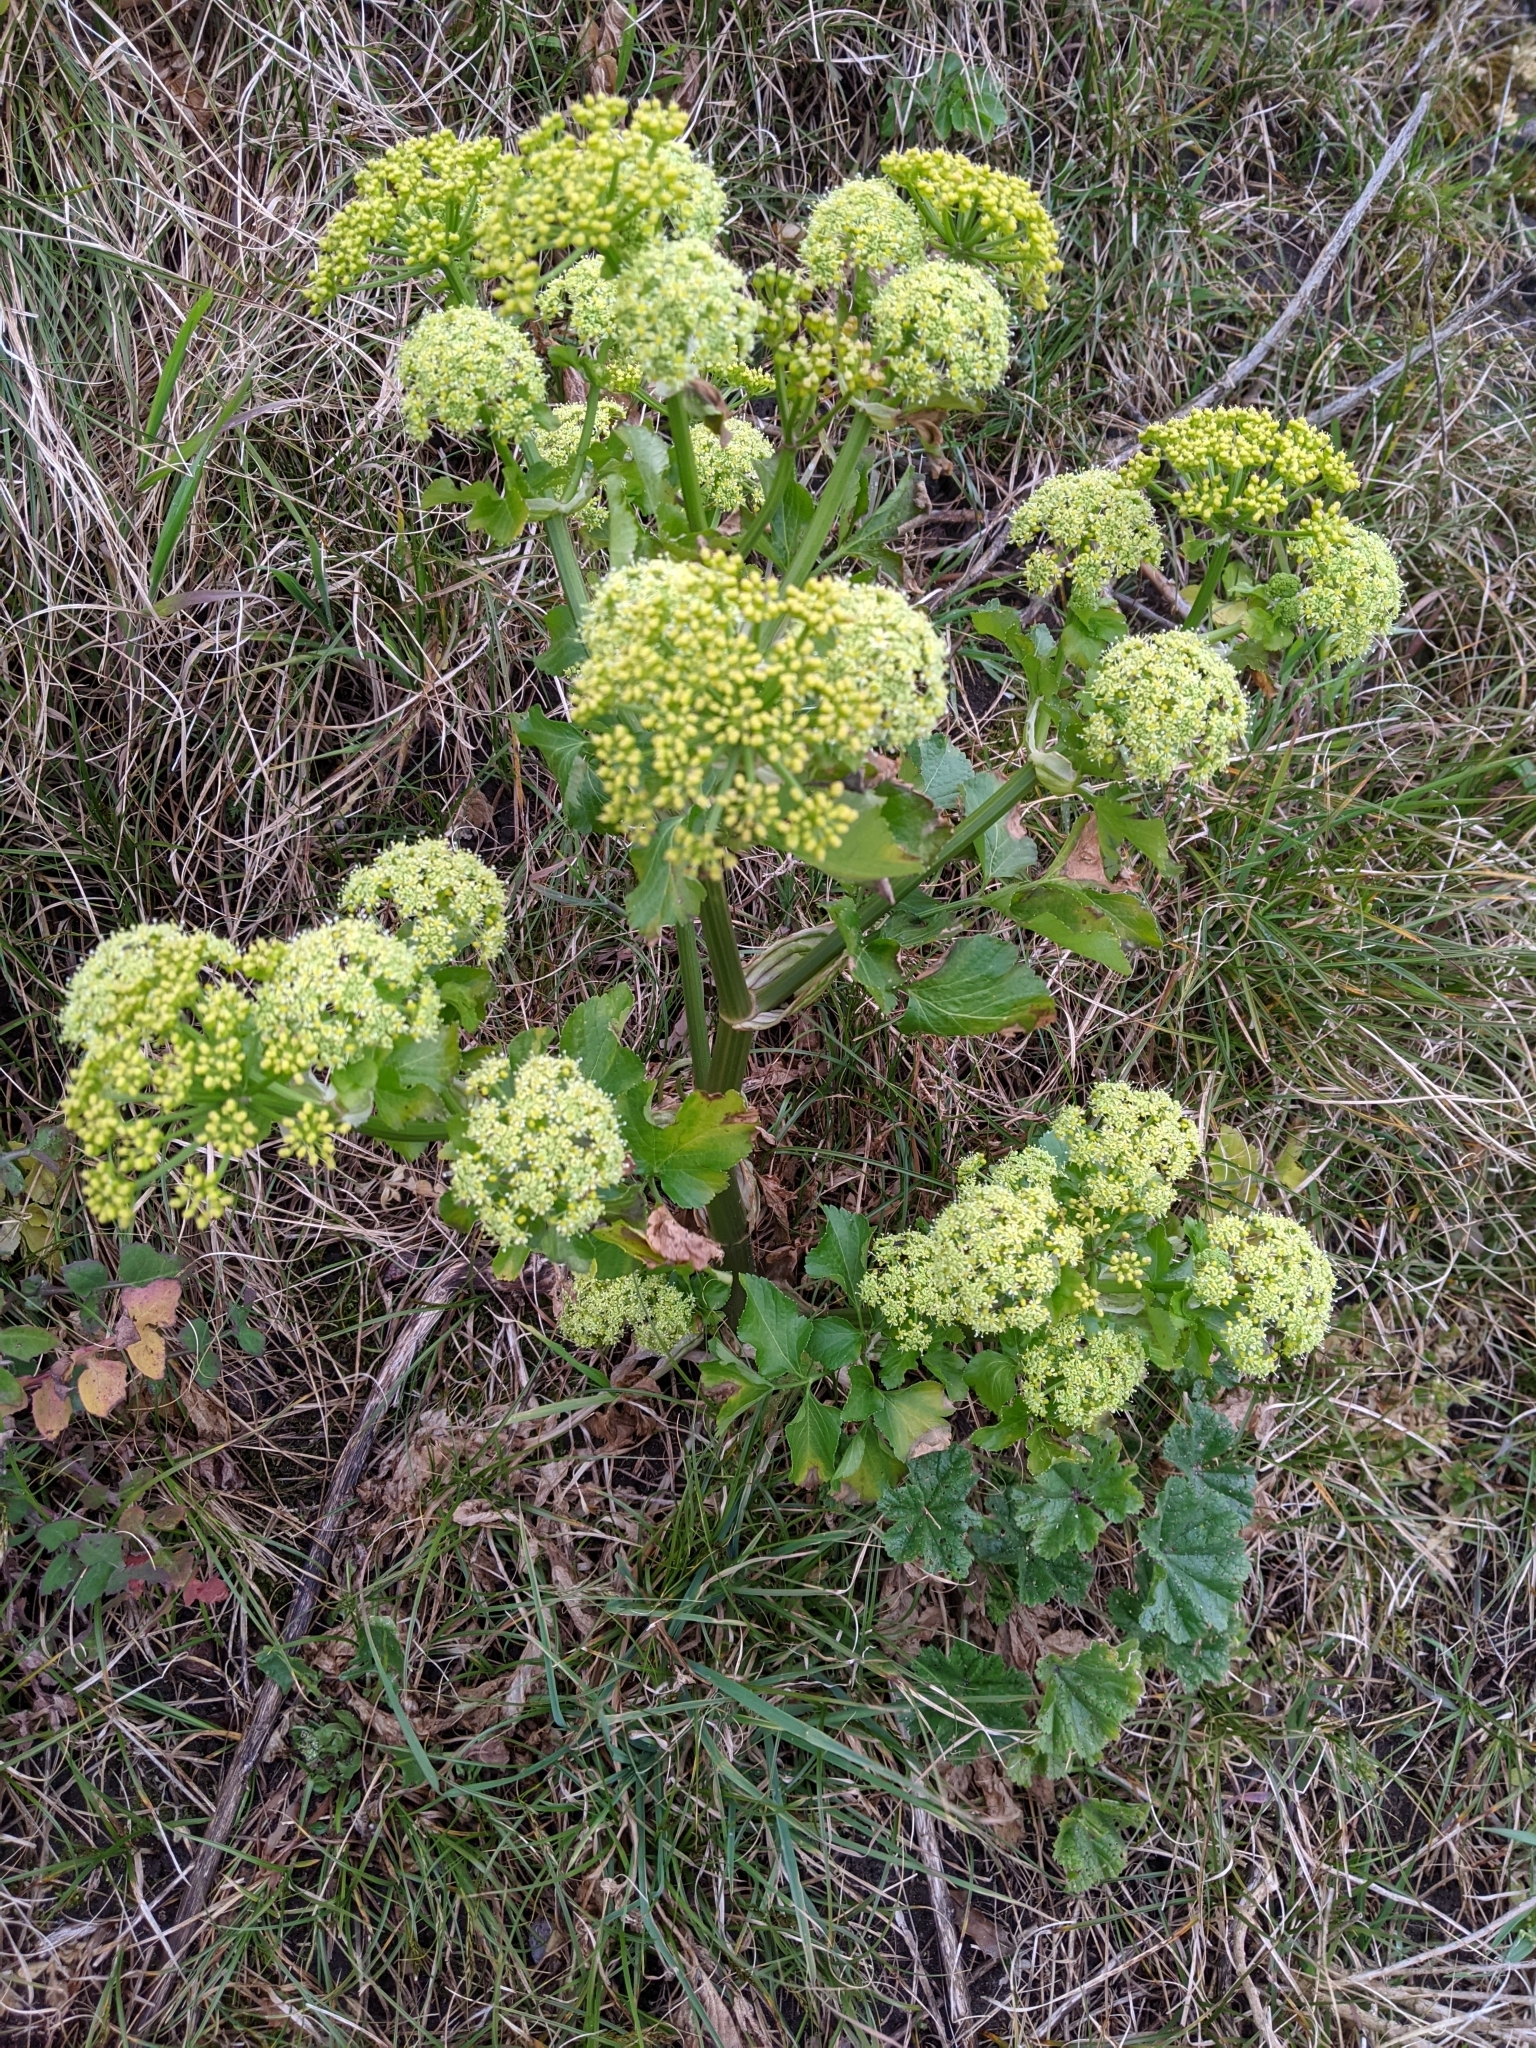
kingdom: Plantae
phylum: Tracheophyta
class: Magnoliopsida
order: Apiales
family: Apiaceae
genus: Smyrnium
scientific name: Smyrnium olusatrum
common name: Alexanders
